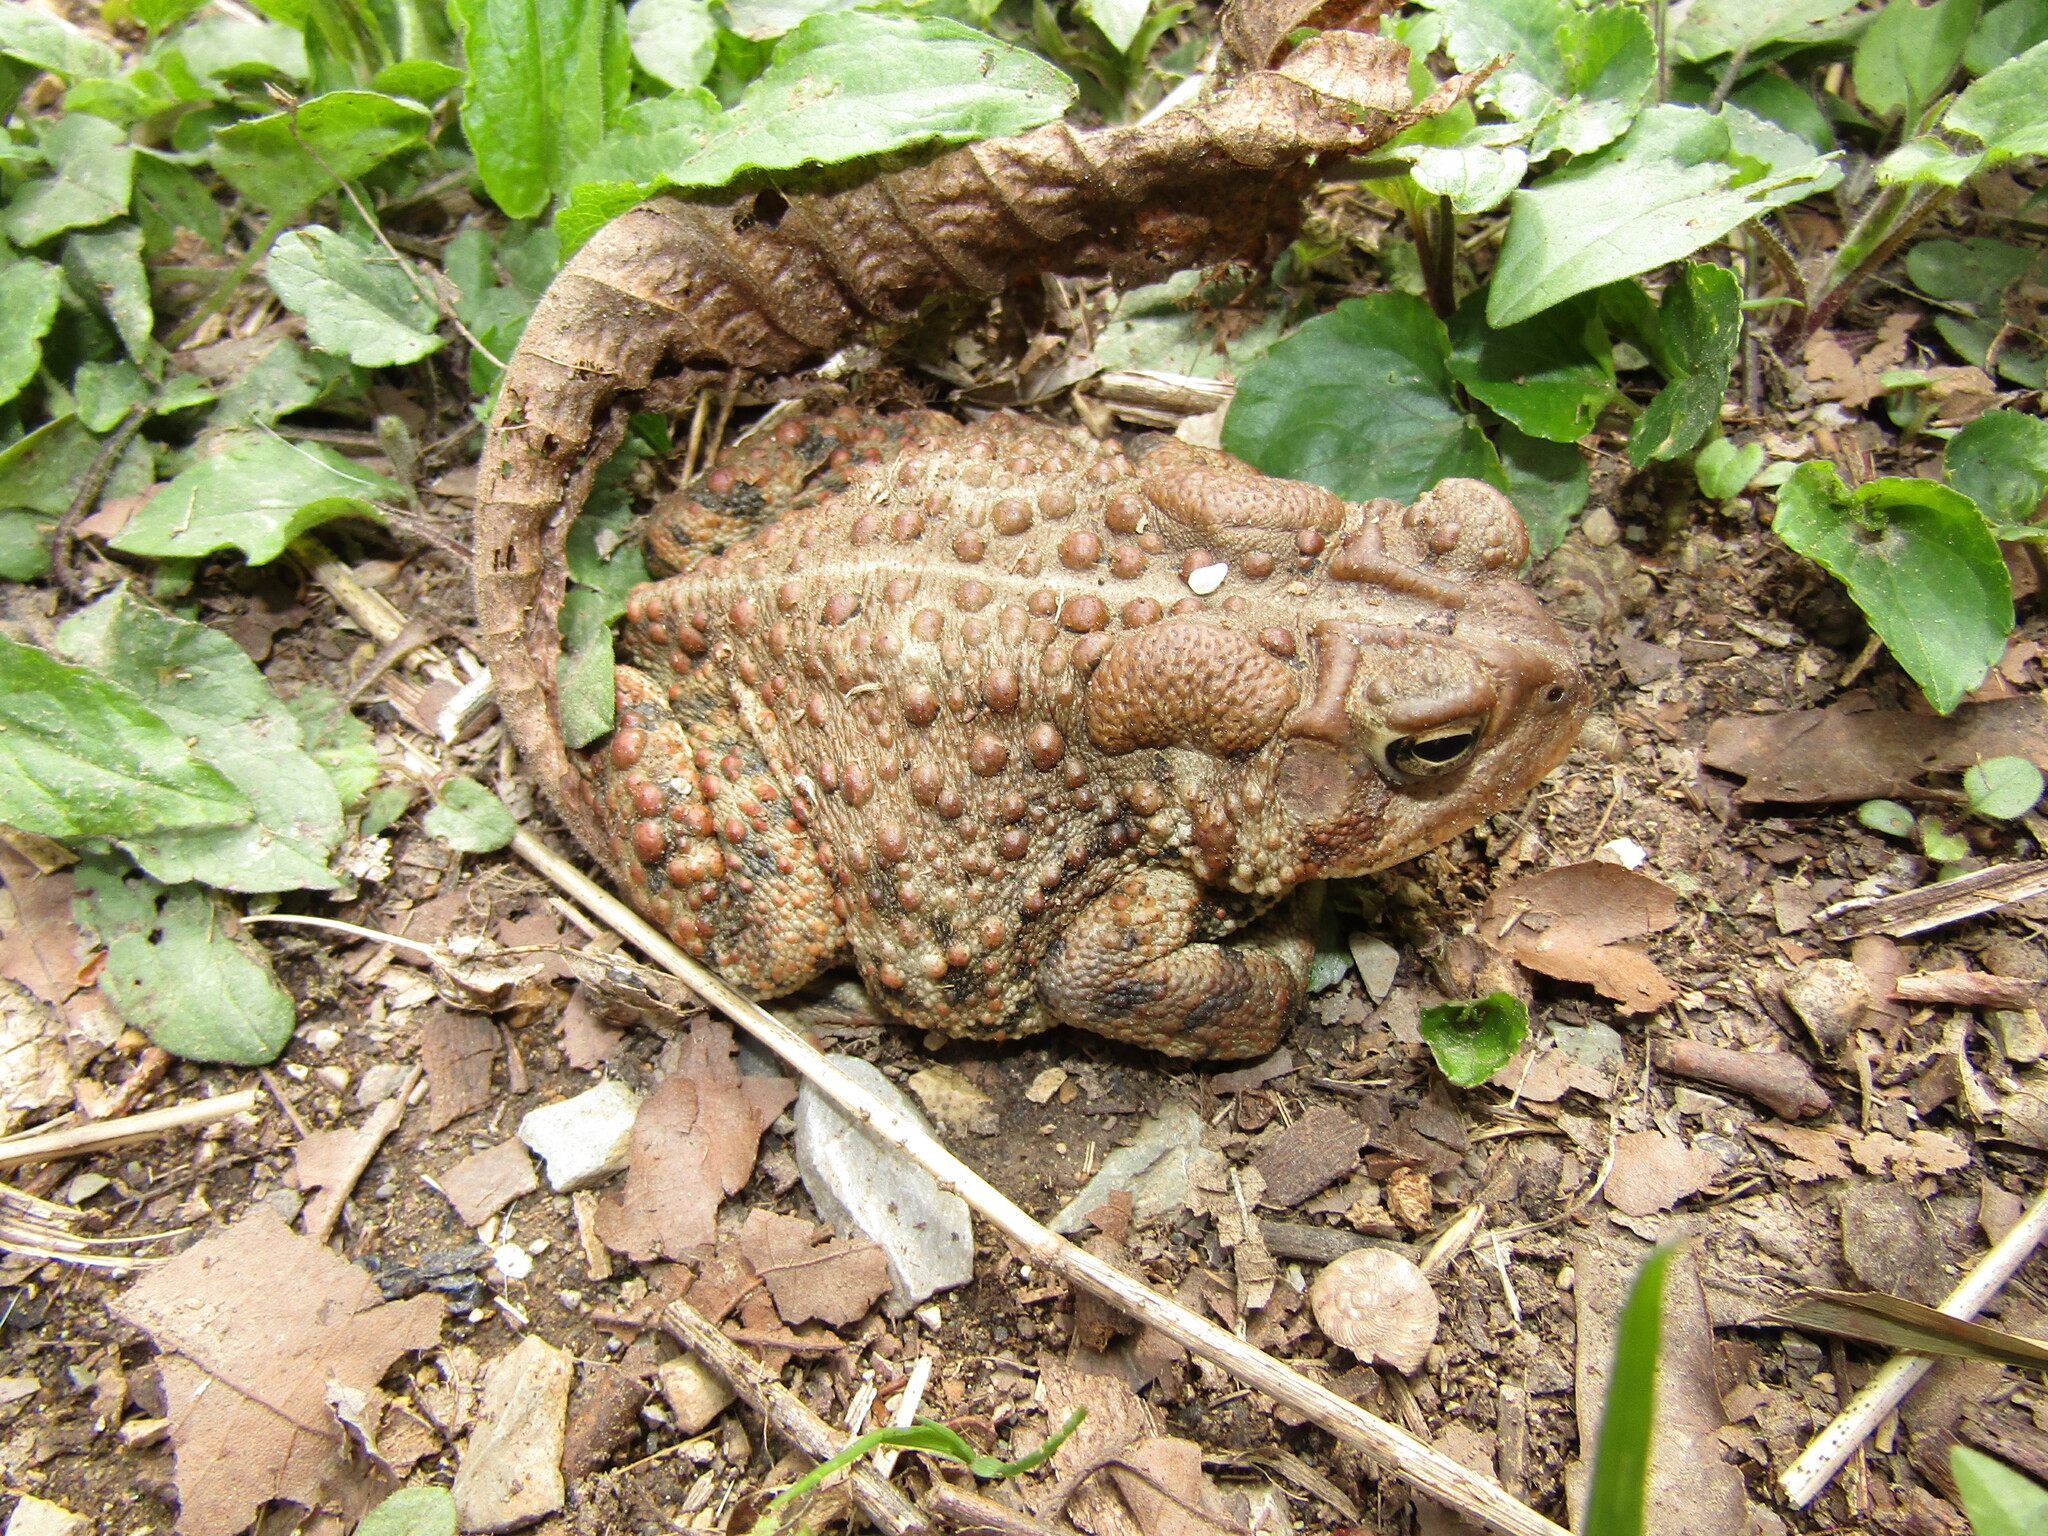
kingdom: Animalia
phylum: Chordata
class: Amphibia
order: Anura
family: Bufonidae
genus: Anaxyrus
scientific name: Anaxyrus americanus
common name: American toad
